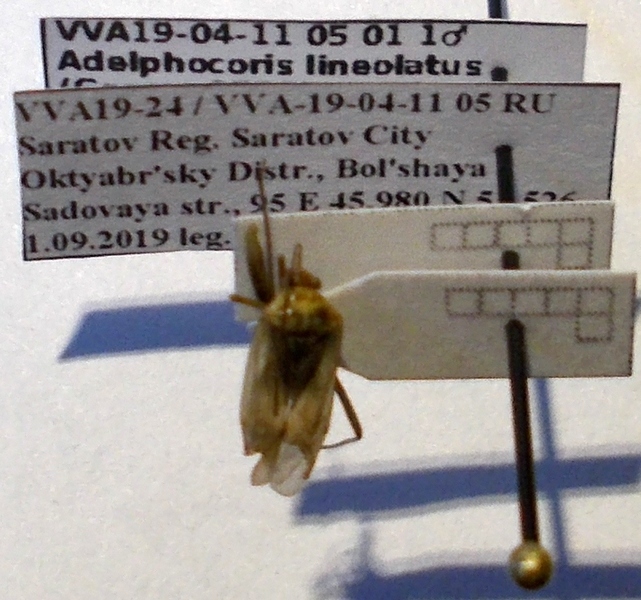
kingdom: Animalia
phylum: Arthropoda
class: Insecta
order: Hemiptera
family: Miridae
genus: Adelphocoris
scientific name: Adelphocoris lineolatus
